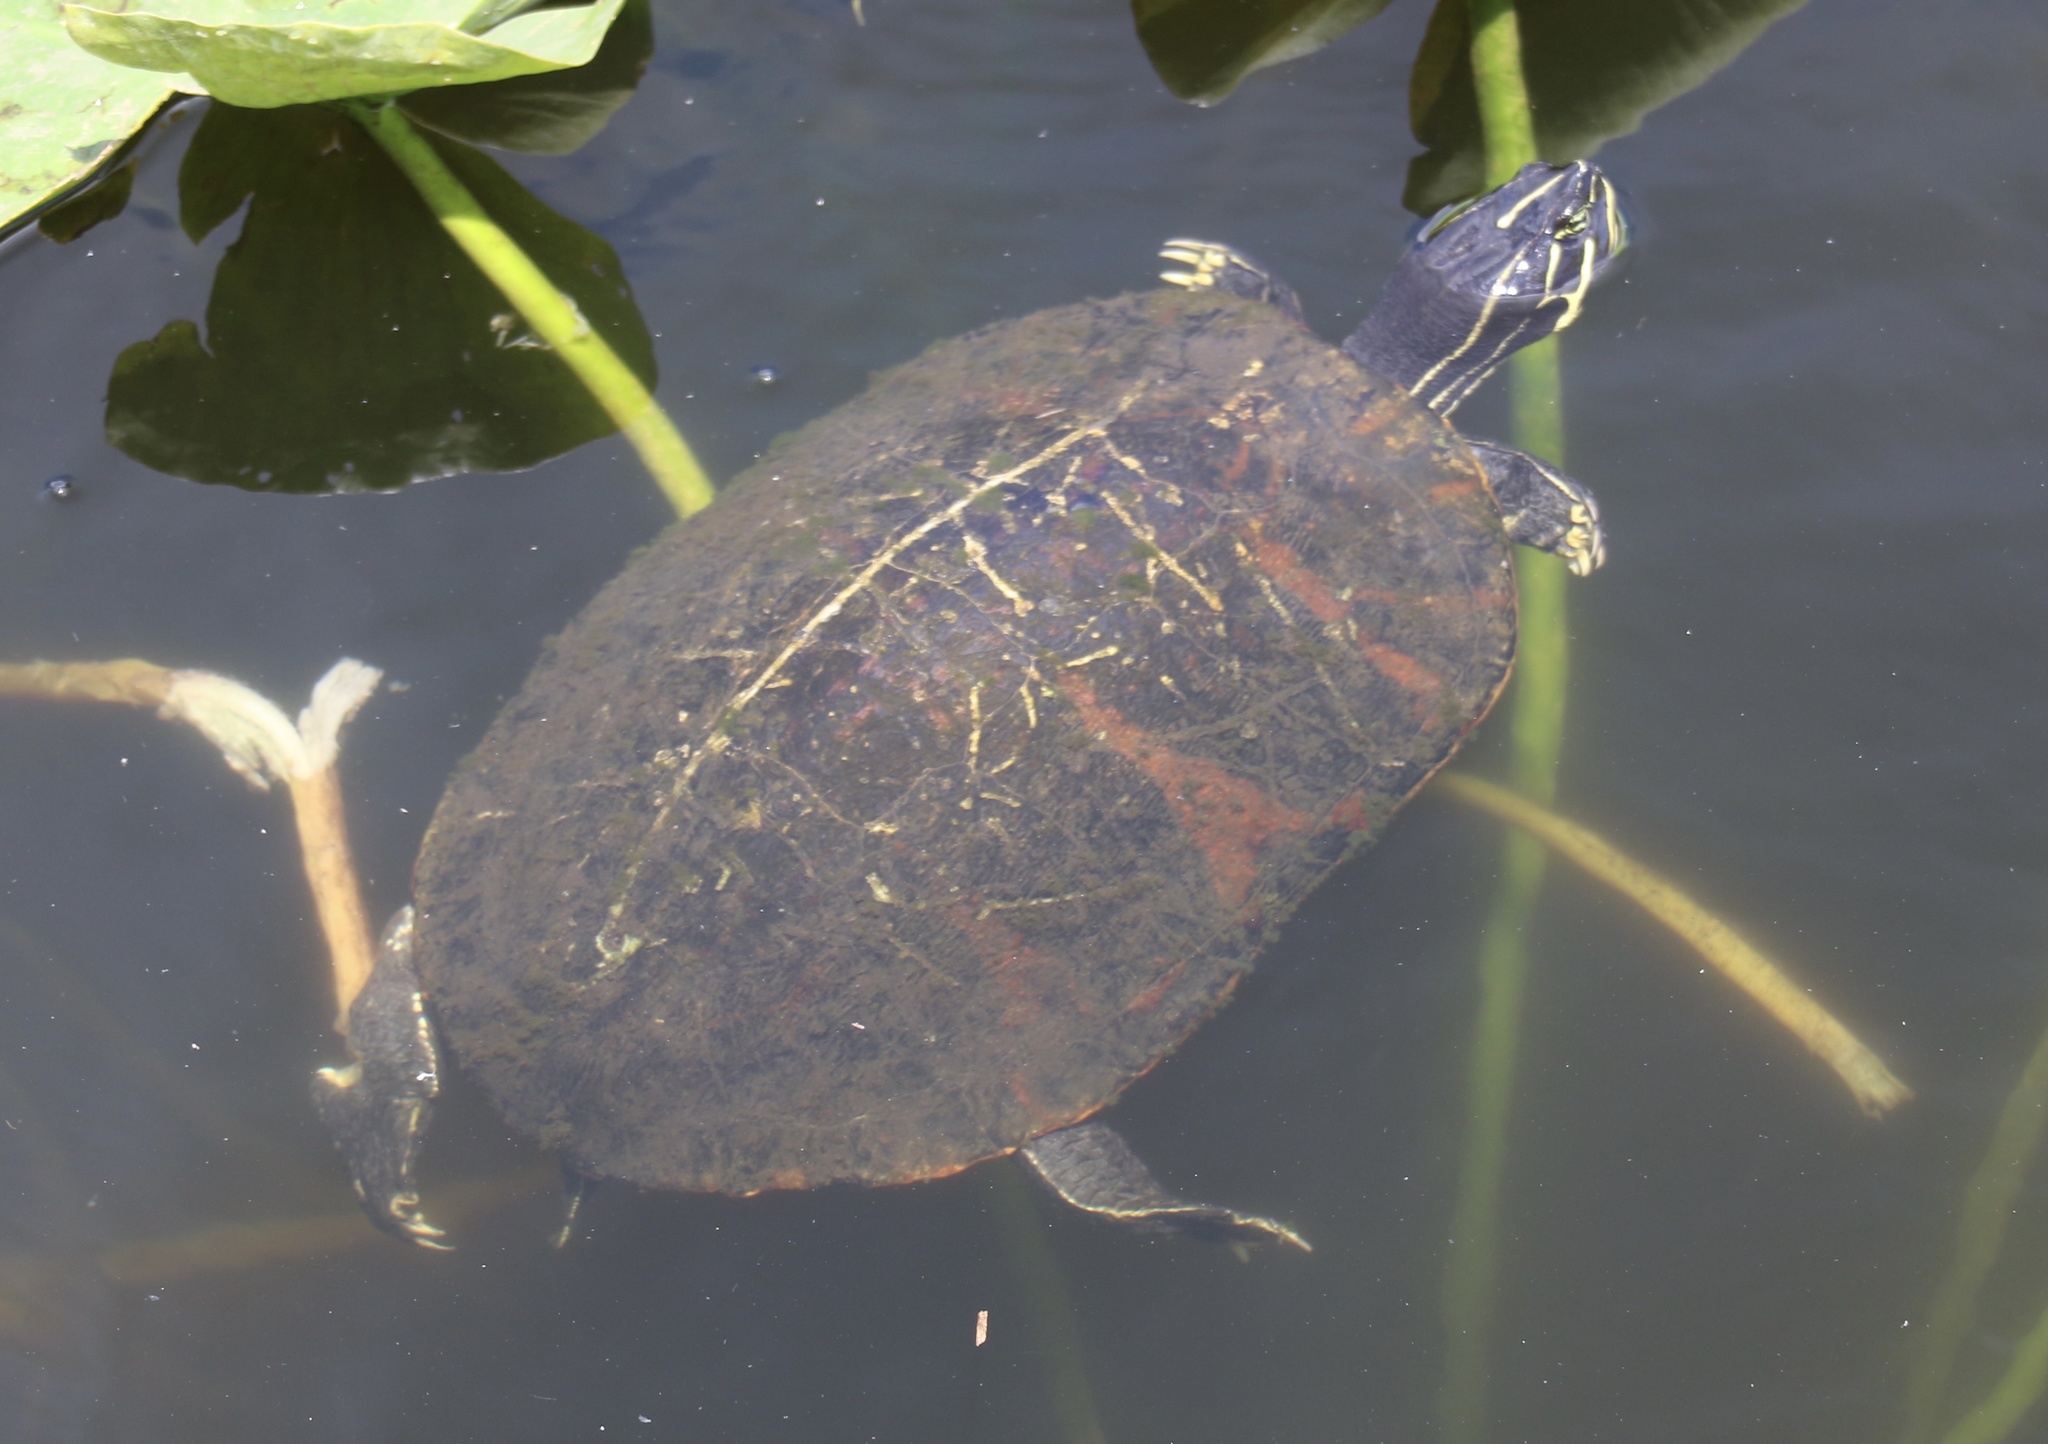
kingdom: Animalia
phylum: Chordata
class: Testudines
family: Emydidae
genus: Pseudemys
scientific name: Pseudemys nelsoni
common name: Florida red-bellied turtle
